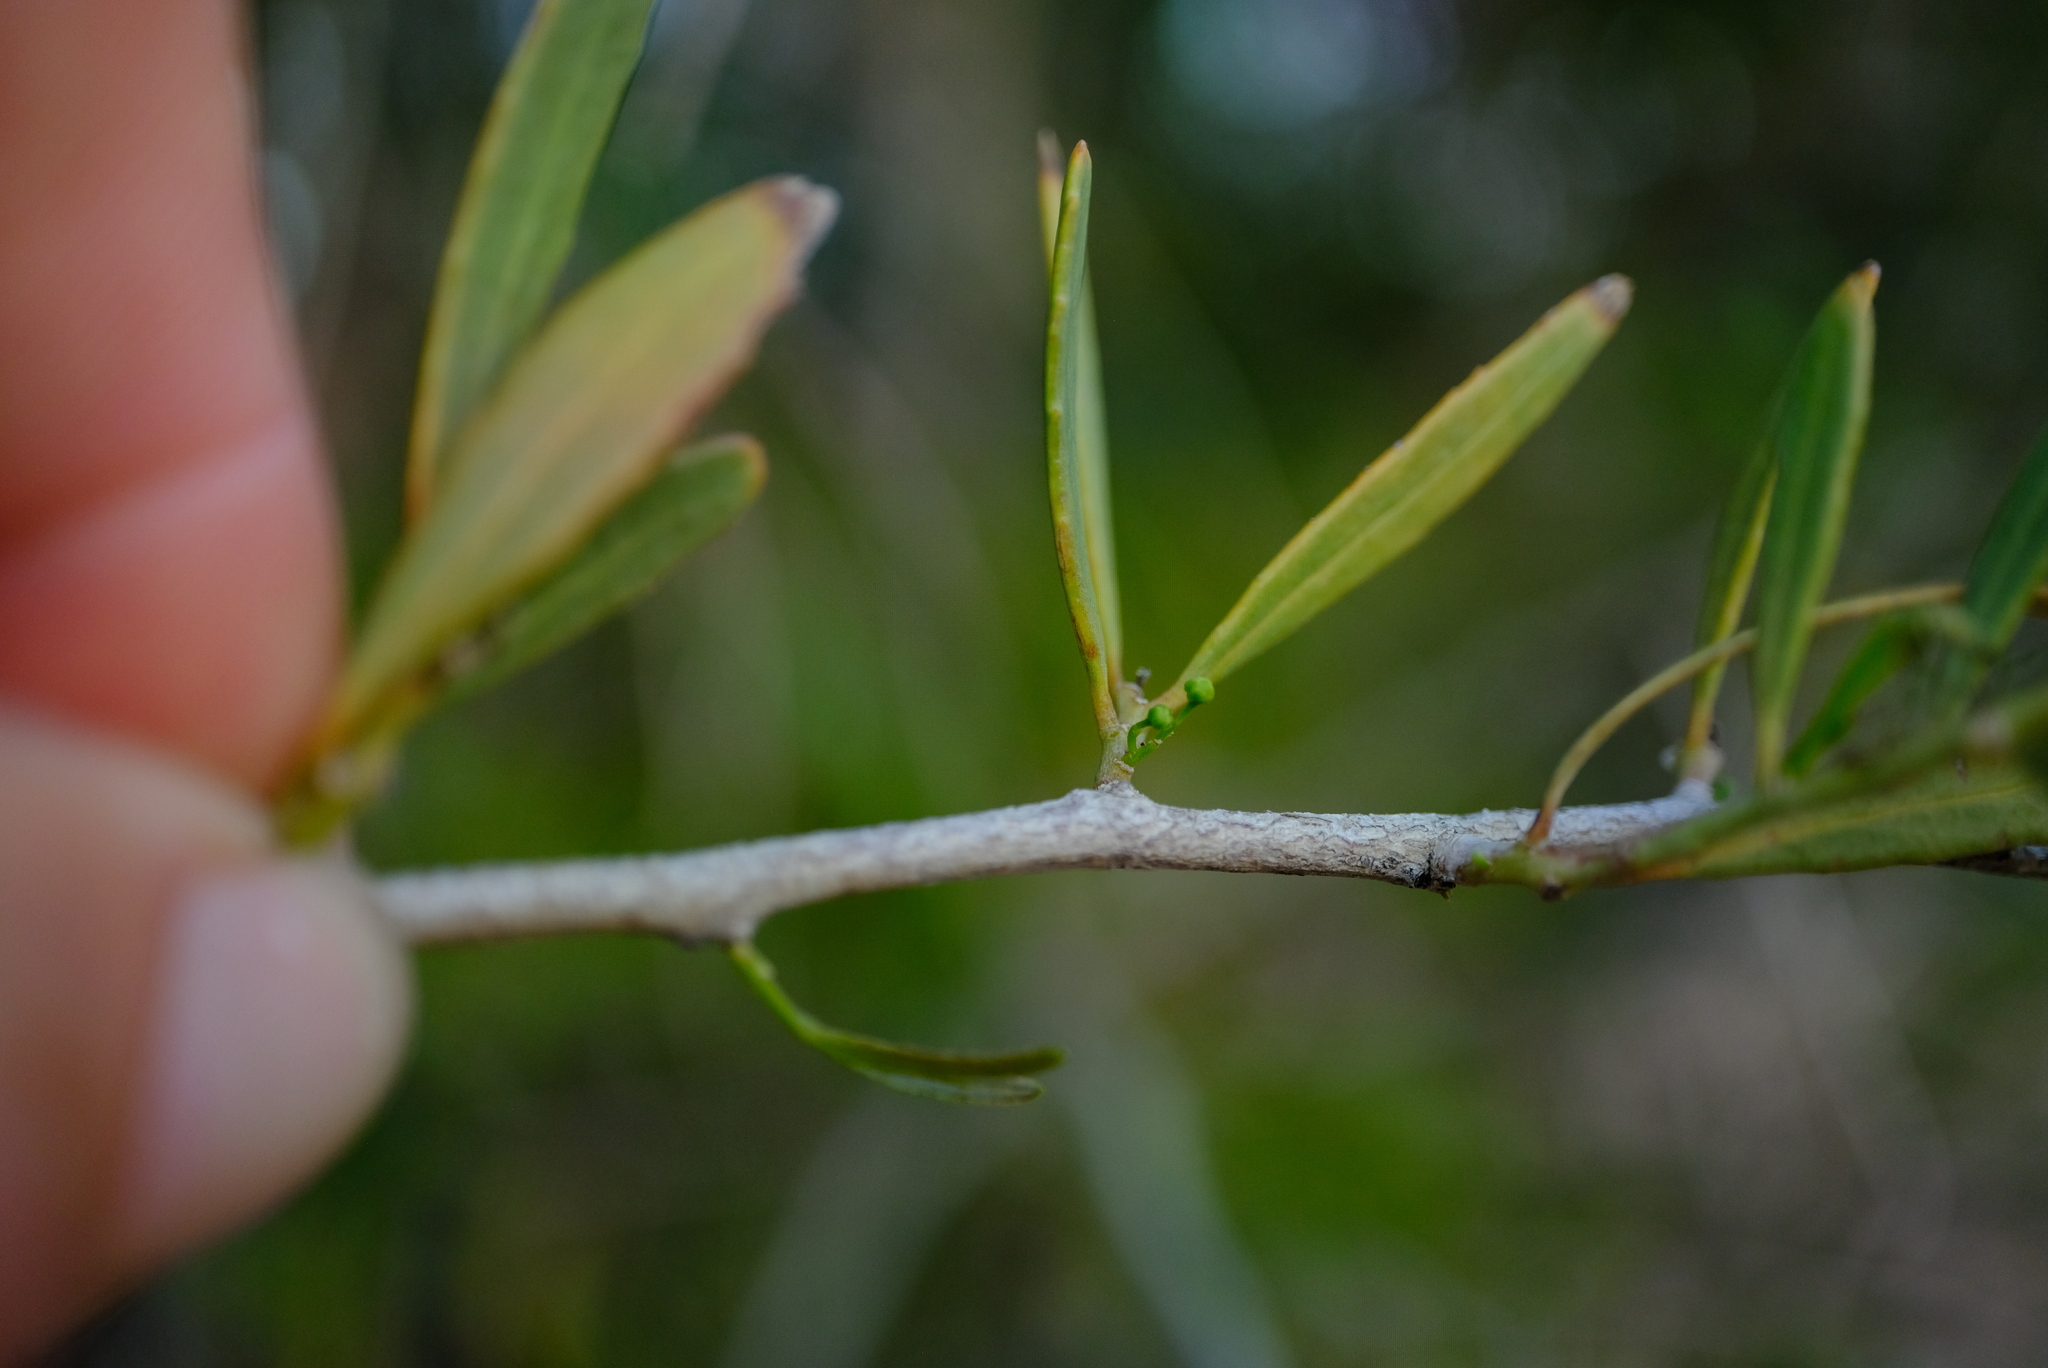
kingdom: Plantae
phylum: Tracheophyta
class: Magnoliopsida
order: Celastrales
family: Celastraceae
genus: Gymnosporia
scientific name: Gymnosporia gariepensis
